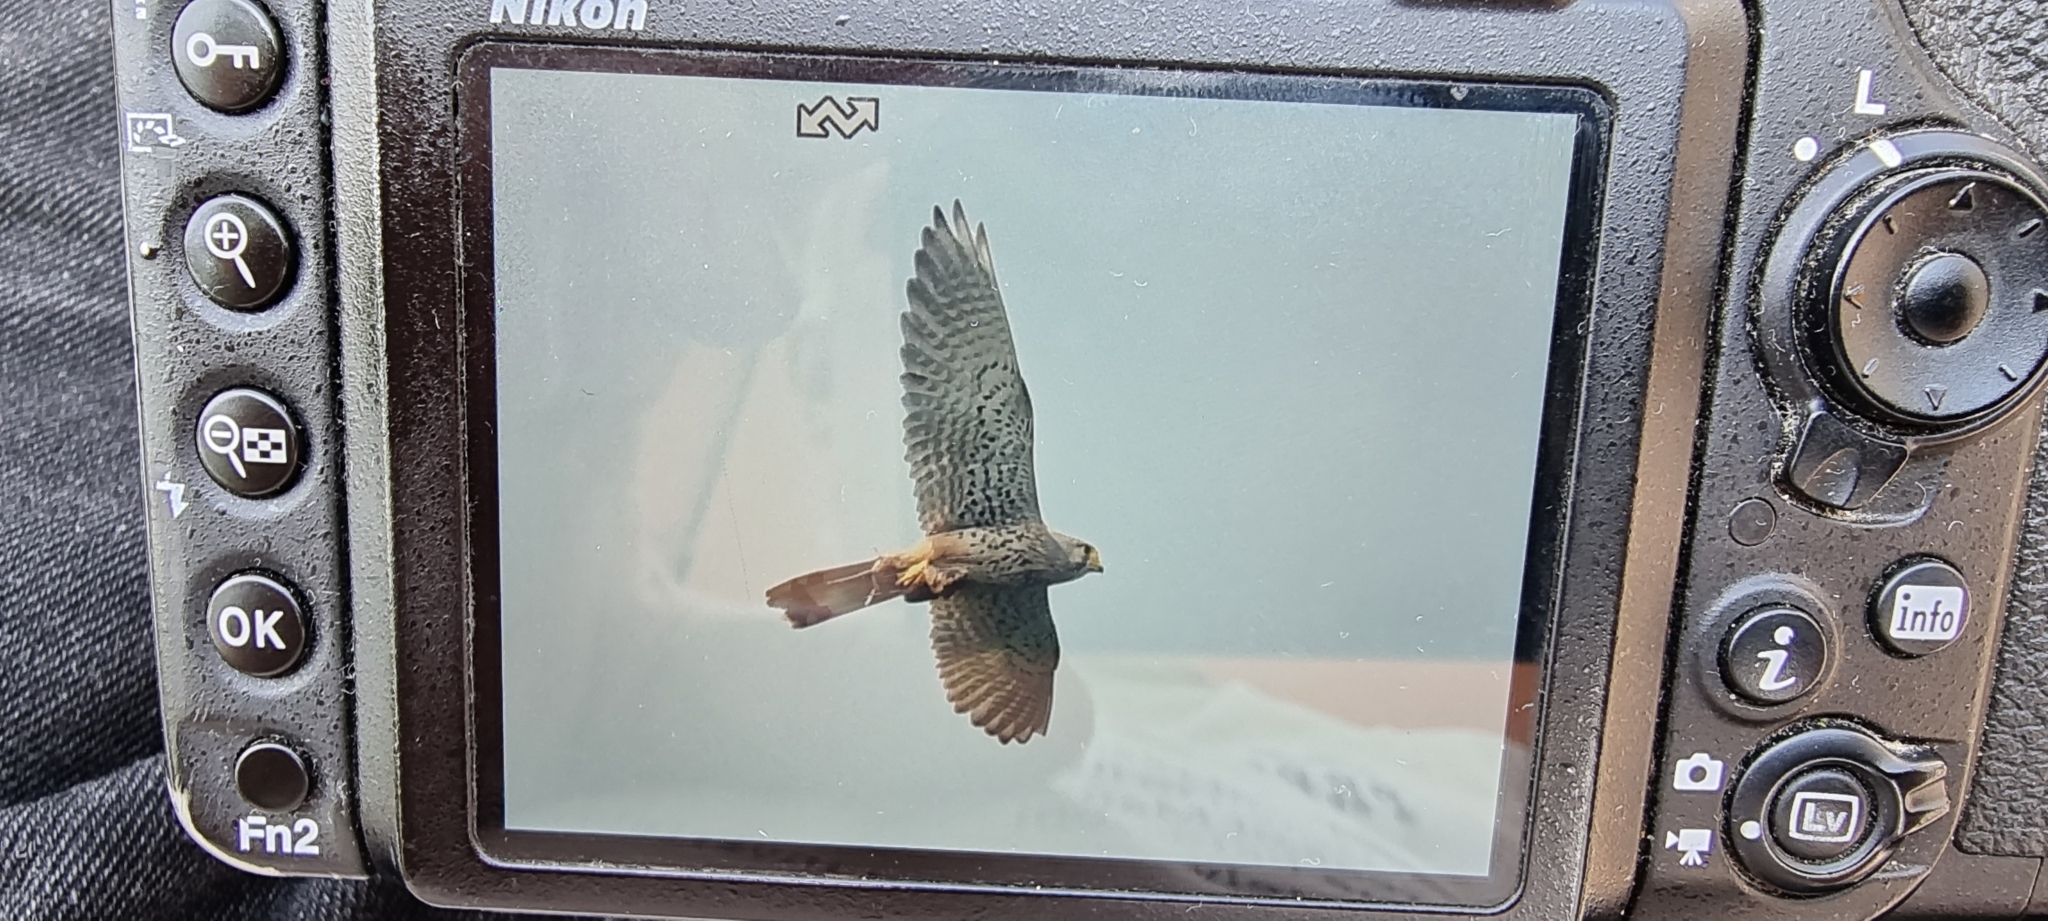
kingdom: Animalia
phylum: Chordata
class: Aves
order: Falconiformes
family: Falconidae
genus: Falco
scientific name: Falco tinnunculus
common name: Common kestrel
